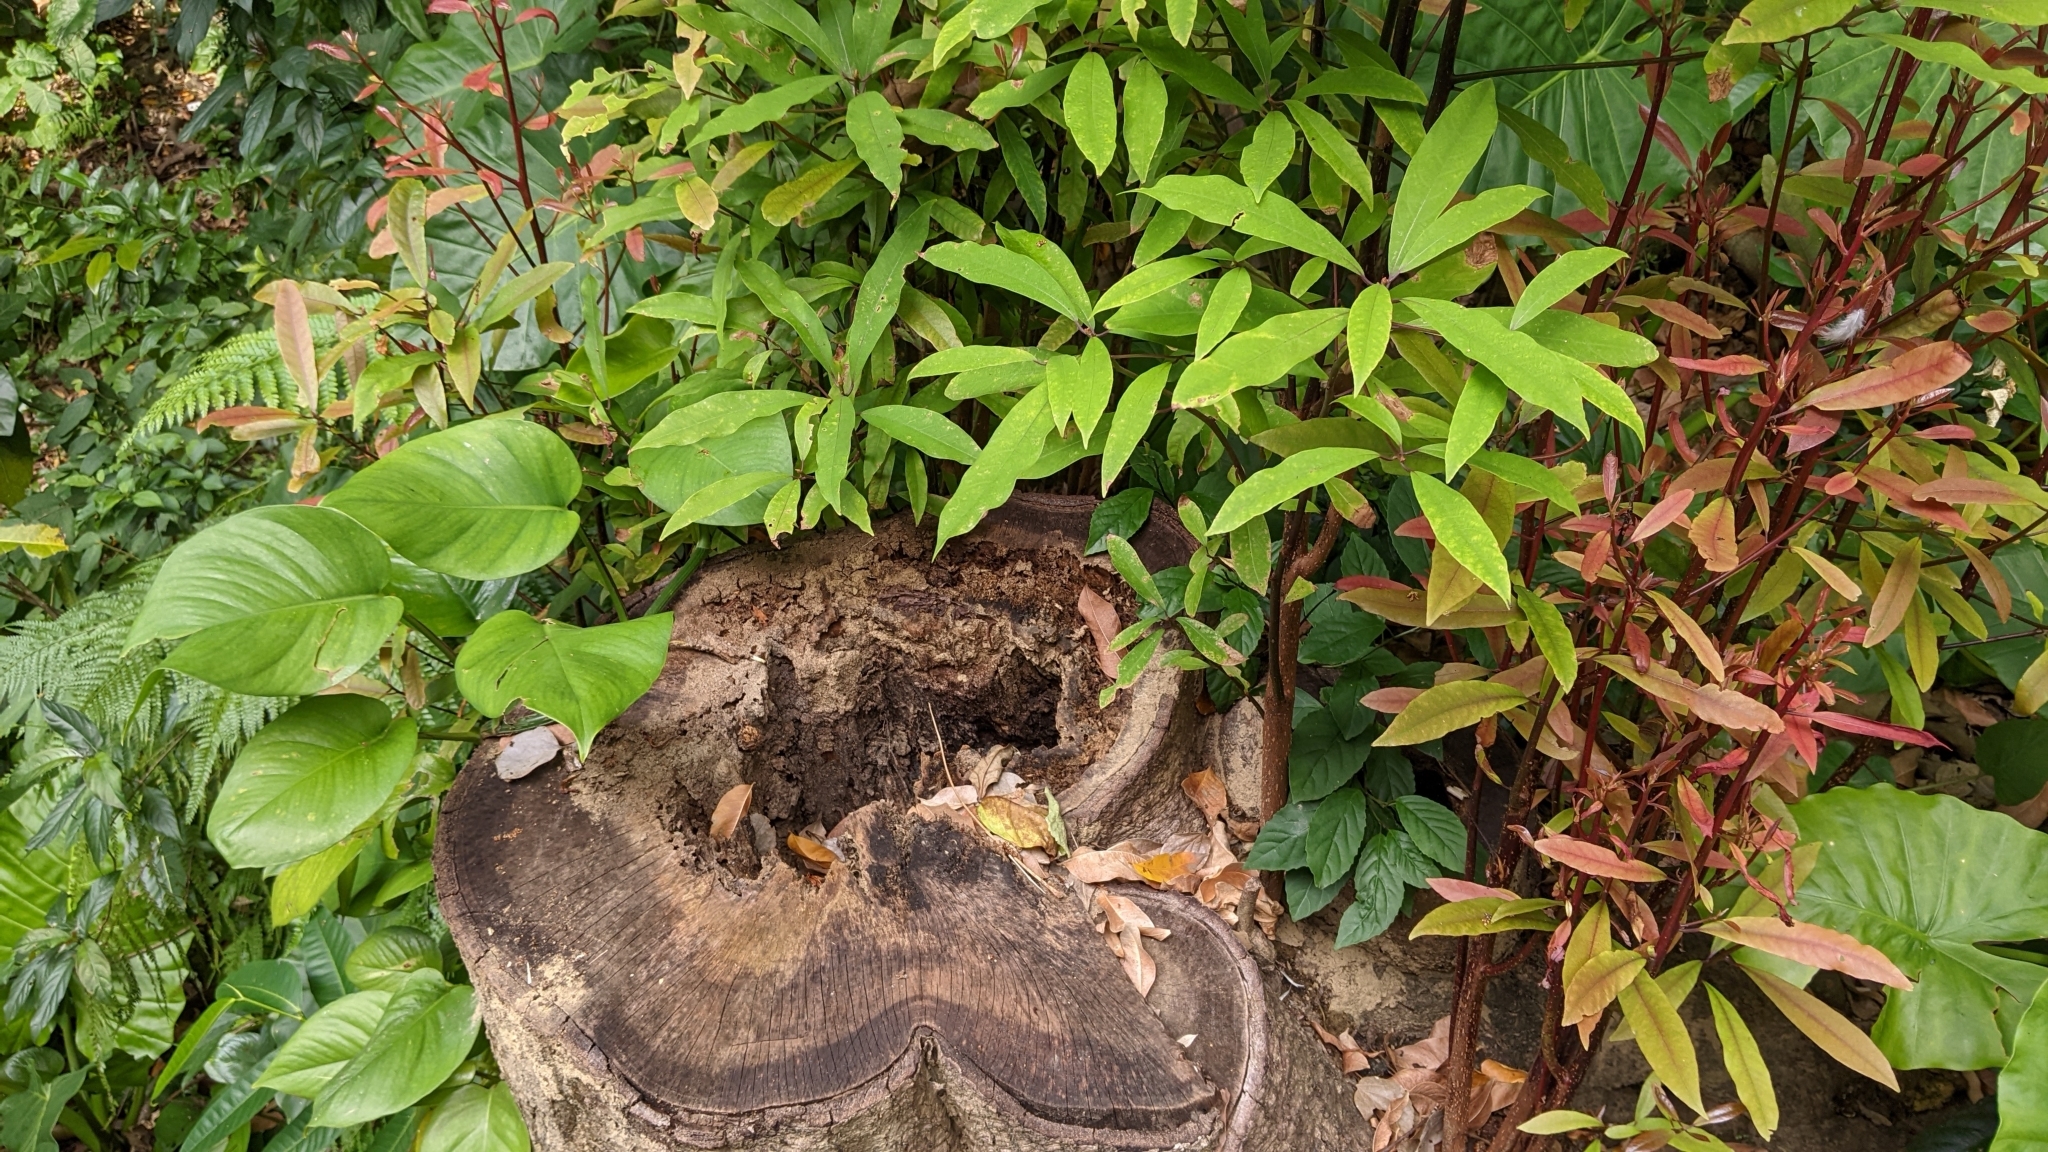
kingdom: Plantae
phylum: Tracheophyta
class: Magnoliopsida
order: Laurales
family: Lauraceae
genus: Machilus
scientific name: Machilus zuihoensis
